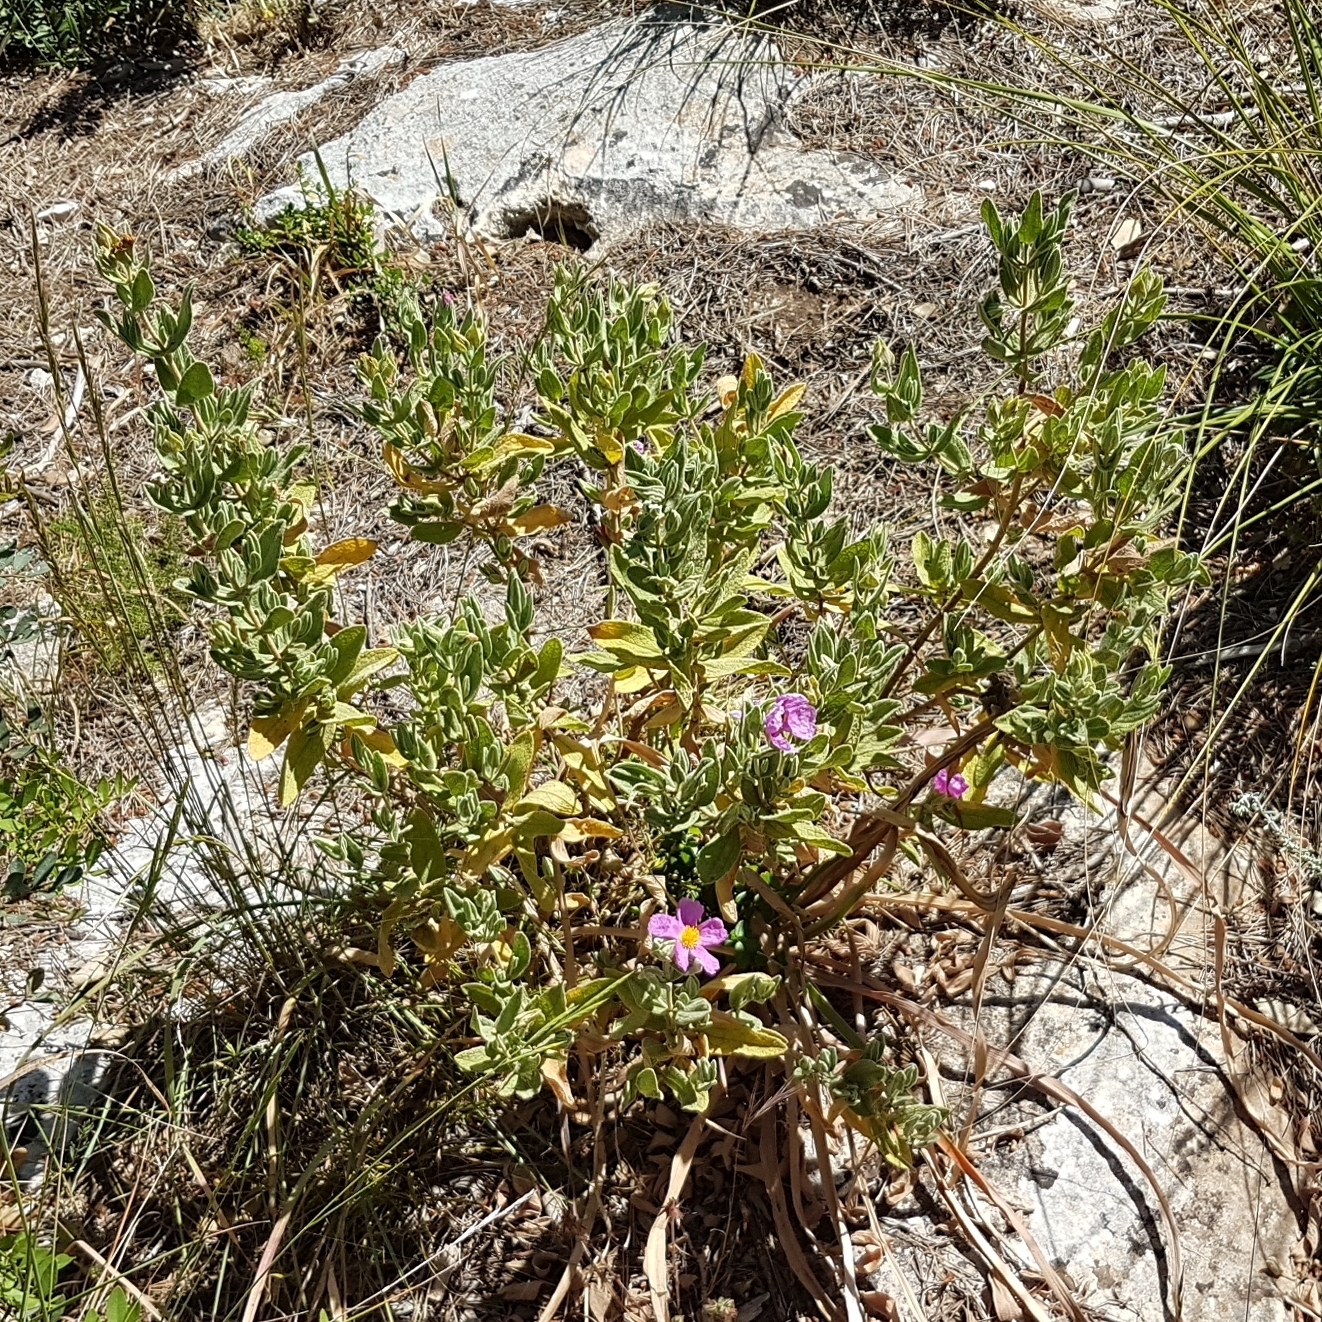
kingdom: Plantae
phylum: Tracheophyta
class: Magnoliopsida
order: Malvales
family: Cistaceae
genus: Cistus
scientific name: Cistus albidus
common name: White-leaf rock-rose
